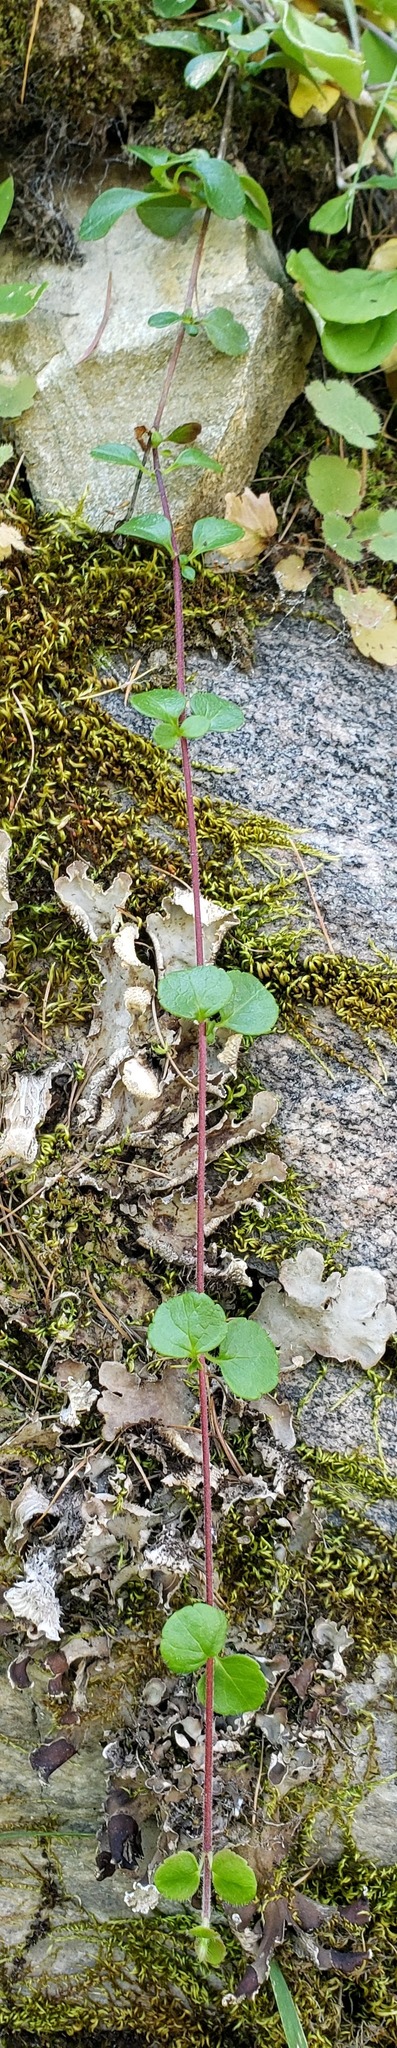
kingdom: Plantae
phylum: Tracheophyta
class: Magnoliopsida
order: Dipsacales
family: Caprifoliaceae
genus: Linnaea
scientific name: Linnaea borealis
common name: Twinflower
